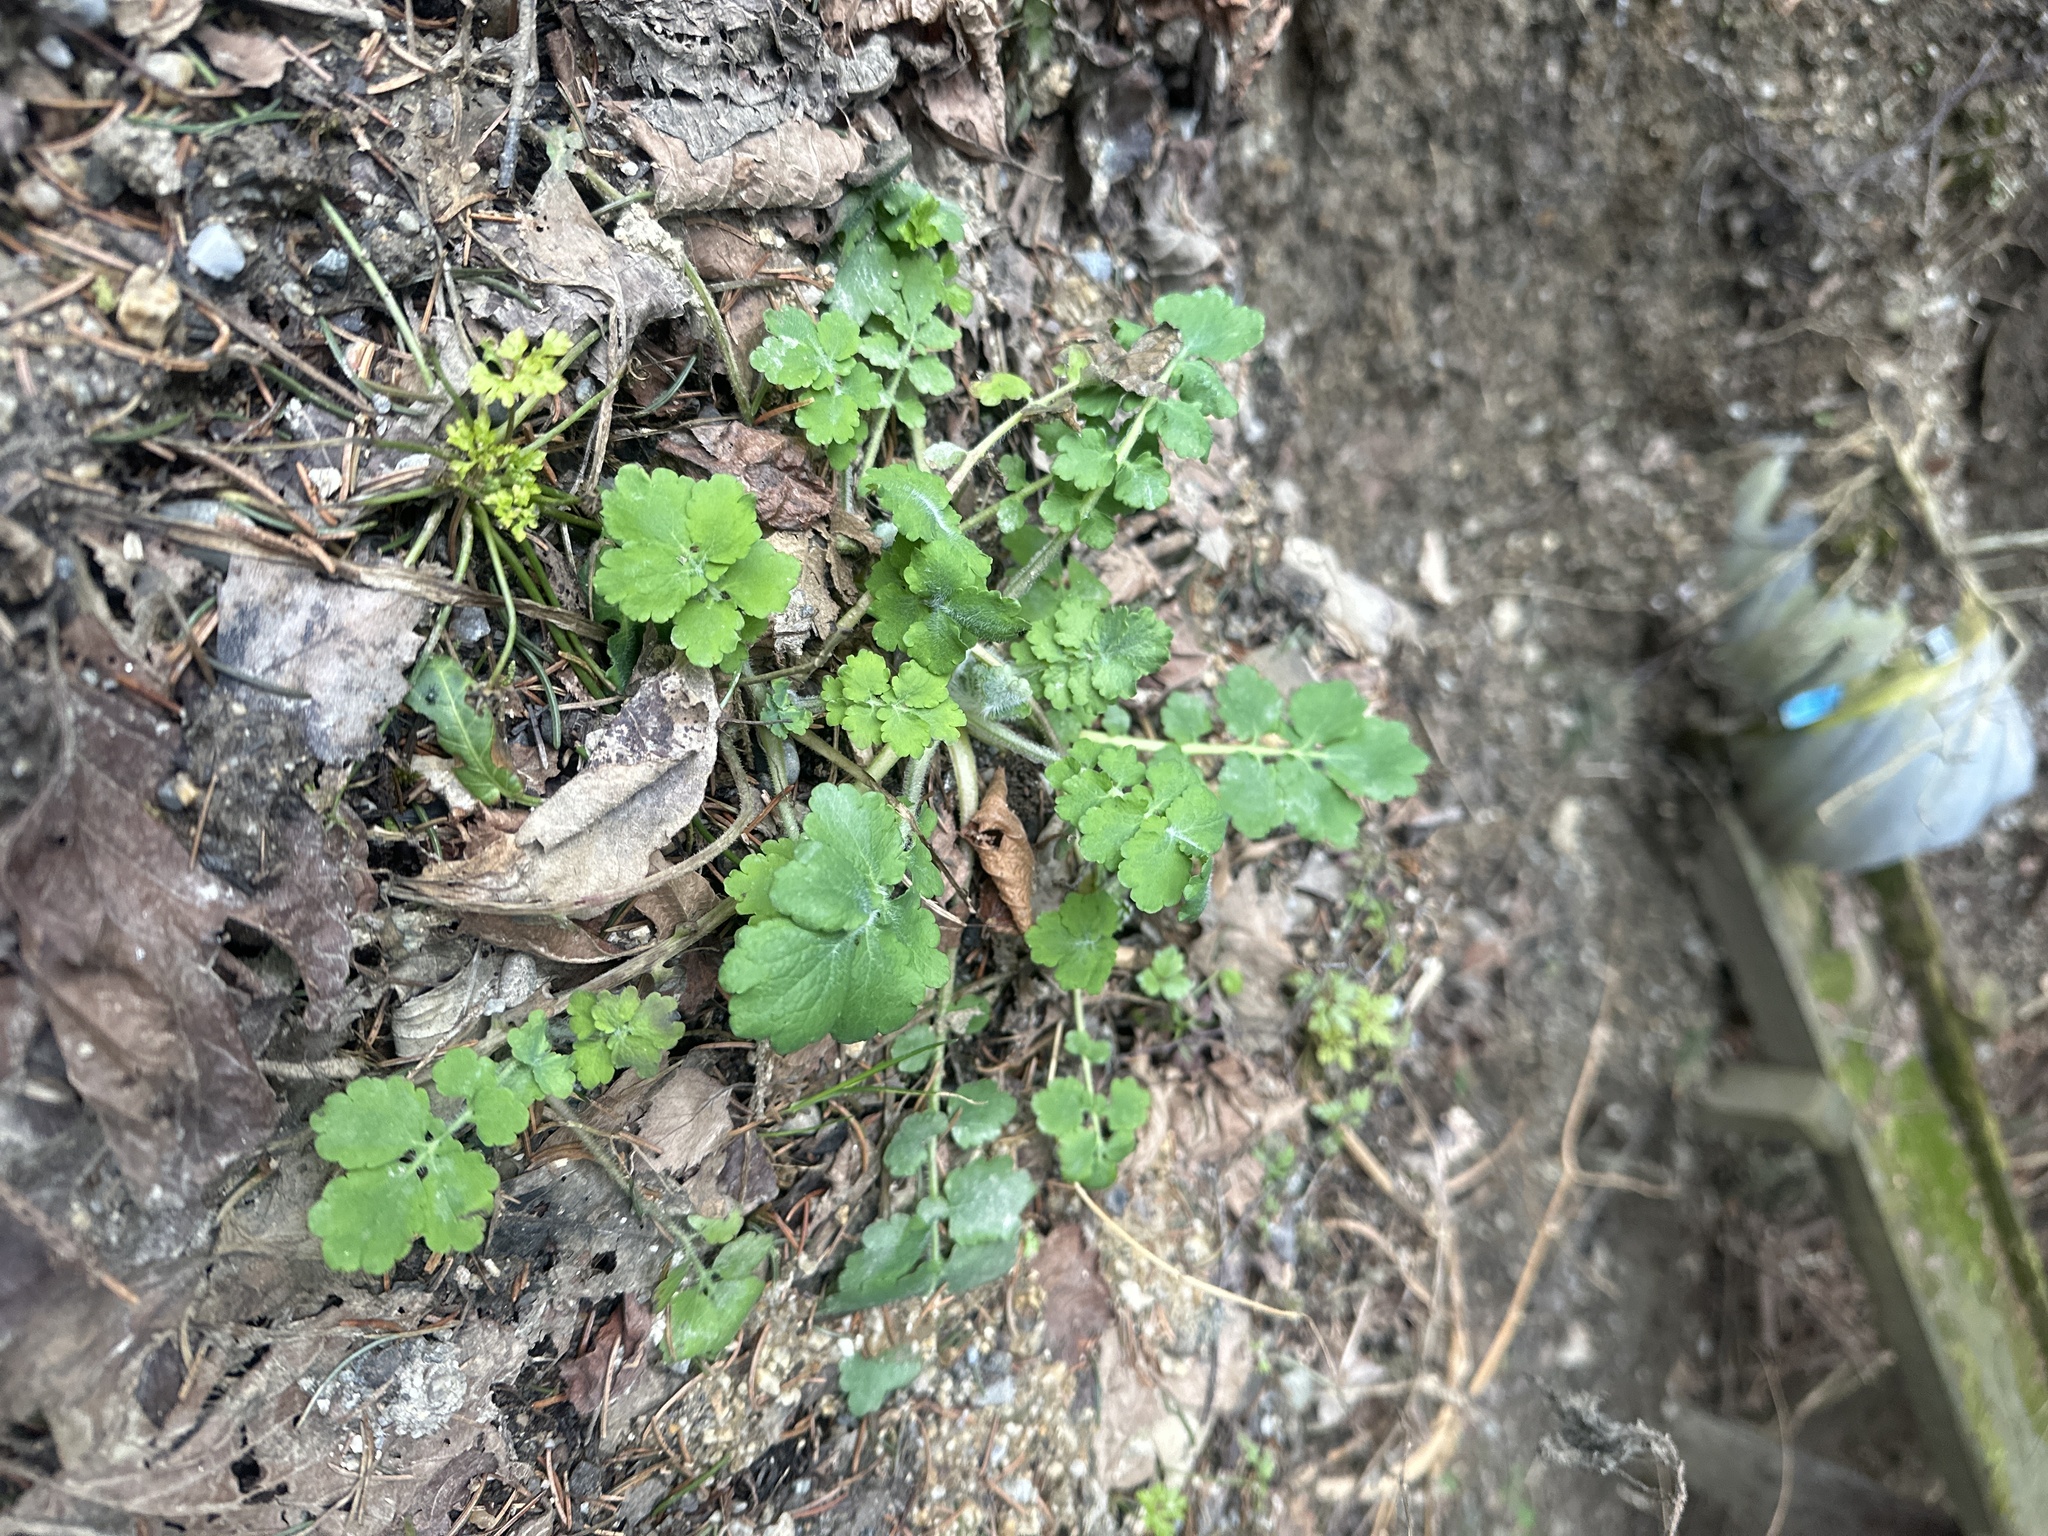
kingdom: Plantae
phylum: Tracheophyta
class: Magnoliopsida
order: Ranunculales
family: Papaveraceae
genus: Chelidonium
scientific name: Chelidonium majus
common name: Greater celandine
